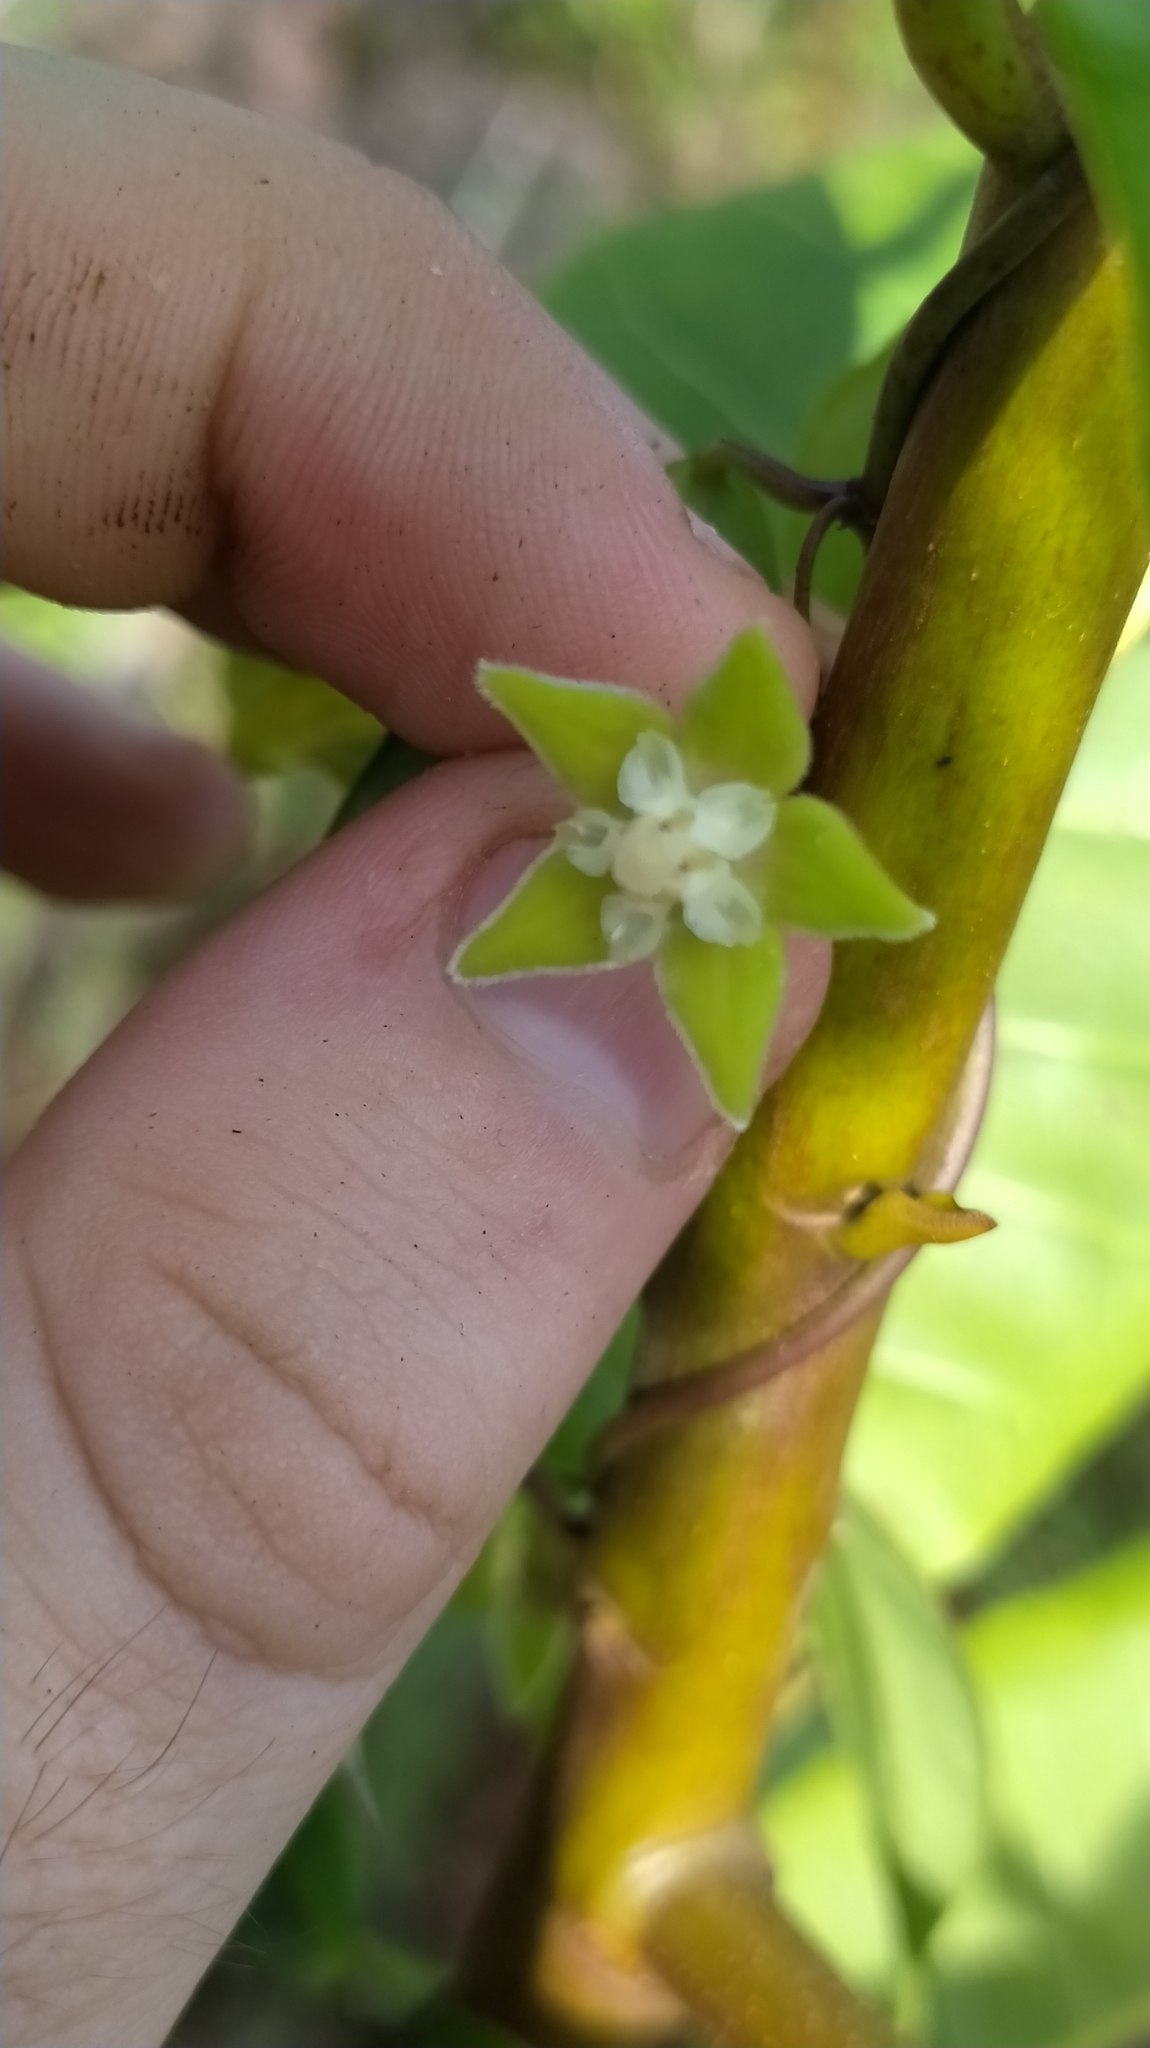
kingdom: Plantae
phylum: Tracheophyta
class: Magnoliopsida
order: Gentianales
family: Apocynaceae
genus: Blepharodon
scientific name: Blepharodon pictum
